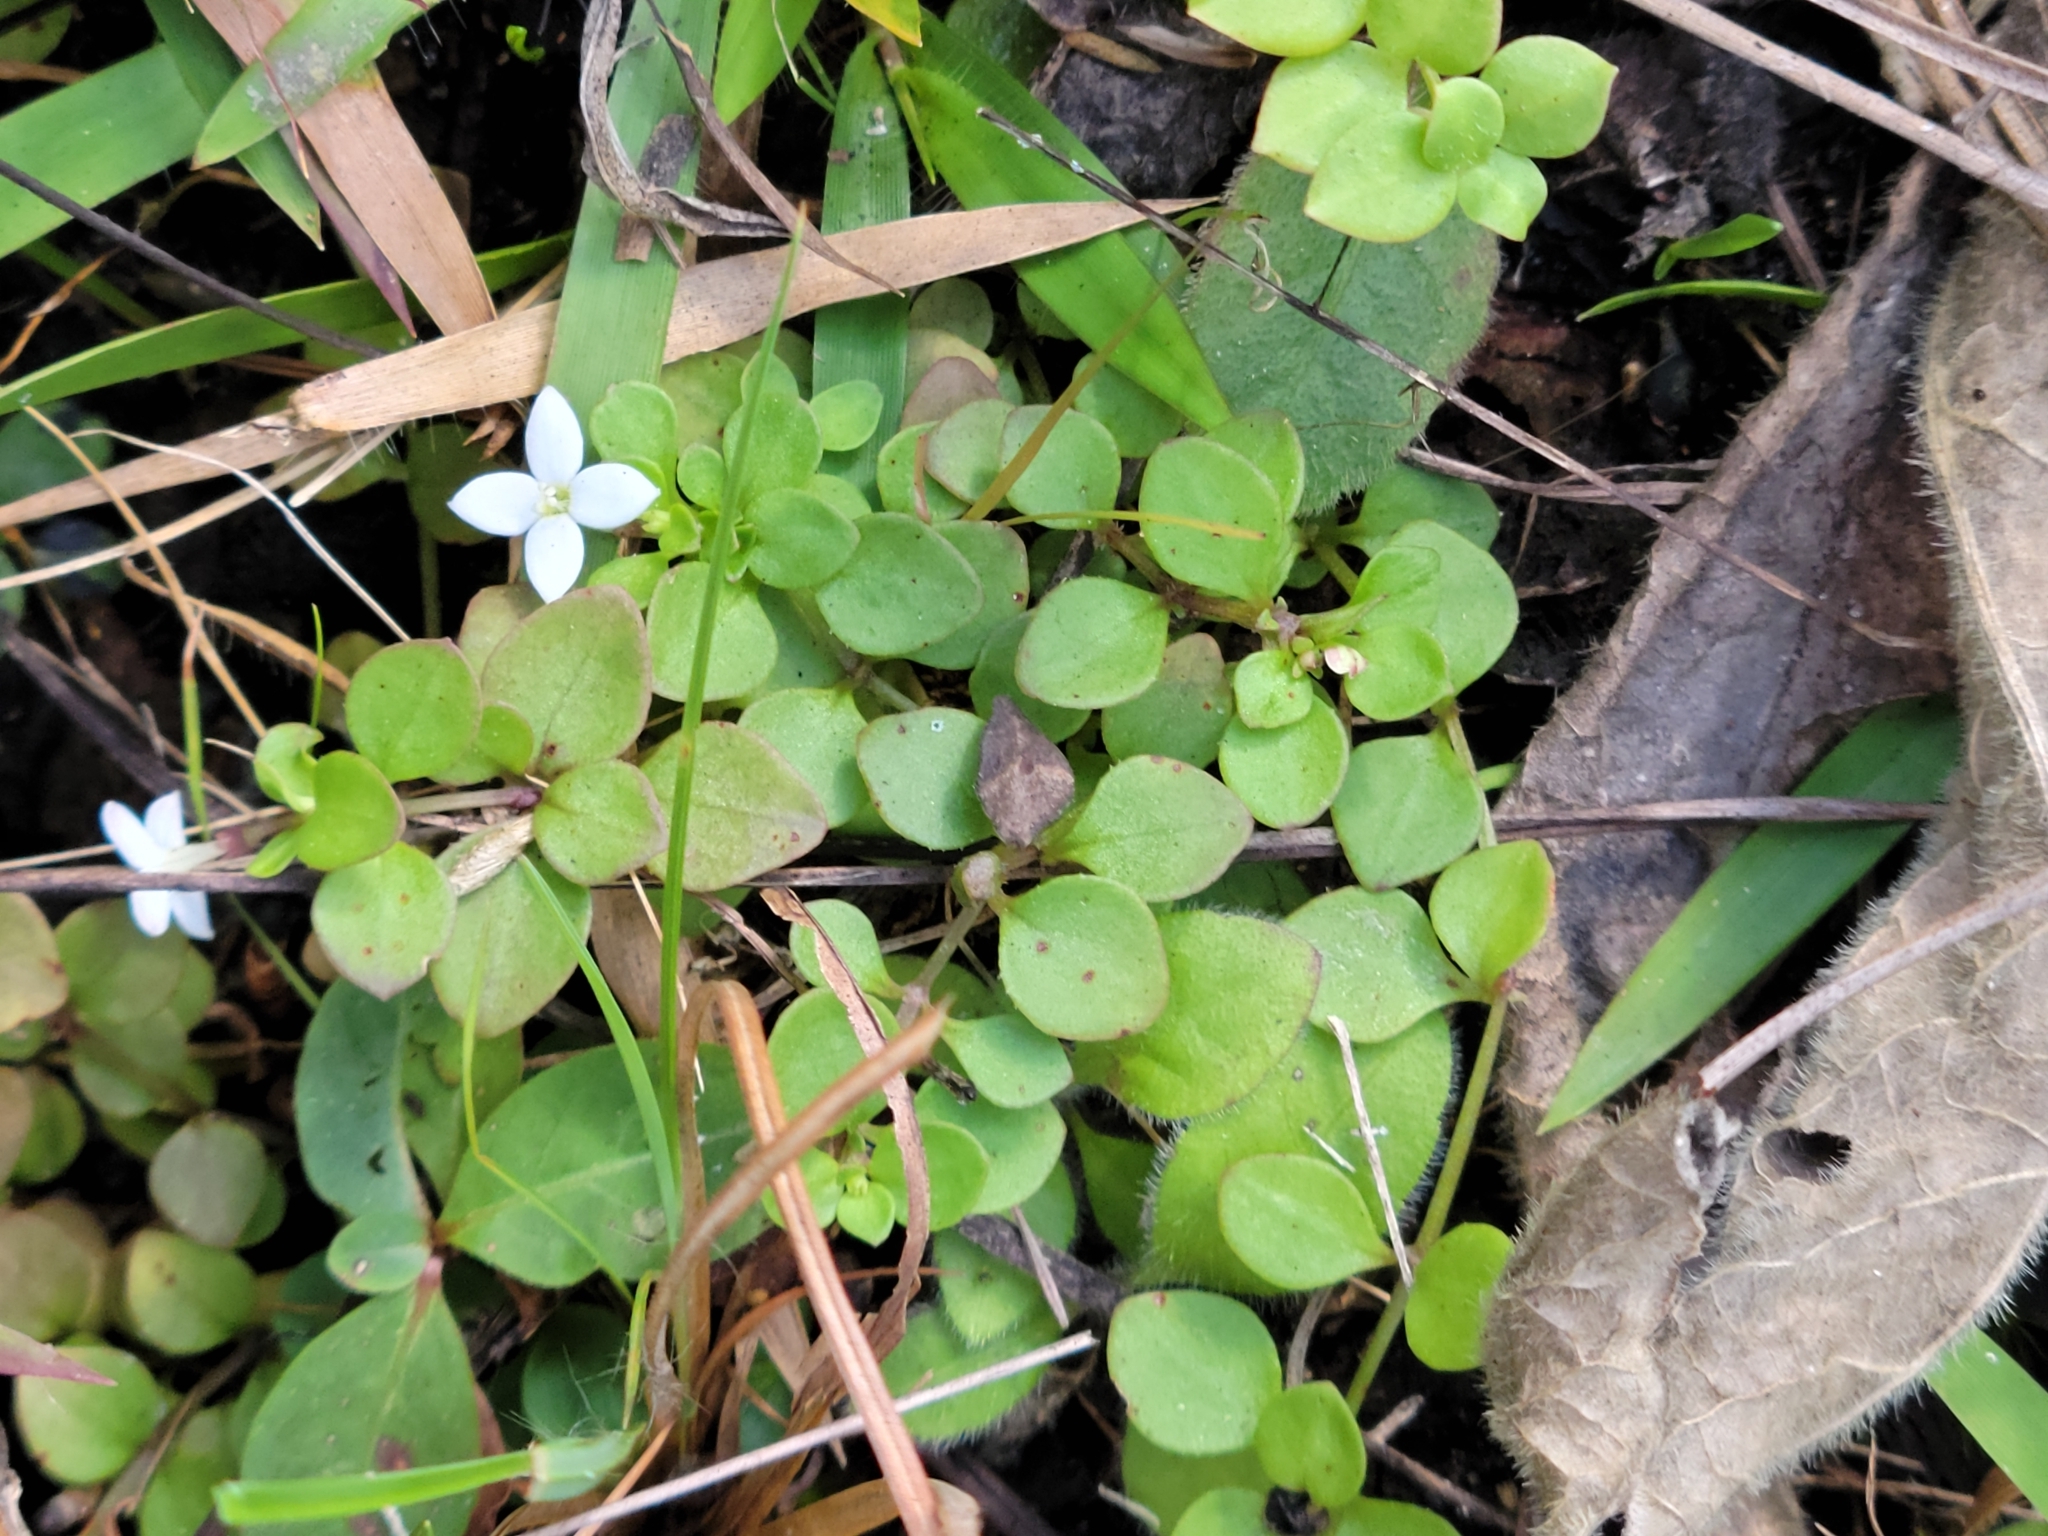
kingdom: Plantae
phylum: Tracheophyta
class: Magnoliopsida
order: Gentianales
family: Rubiaceae
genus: Houstonia
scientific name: Houstonia procumbens
